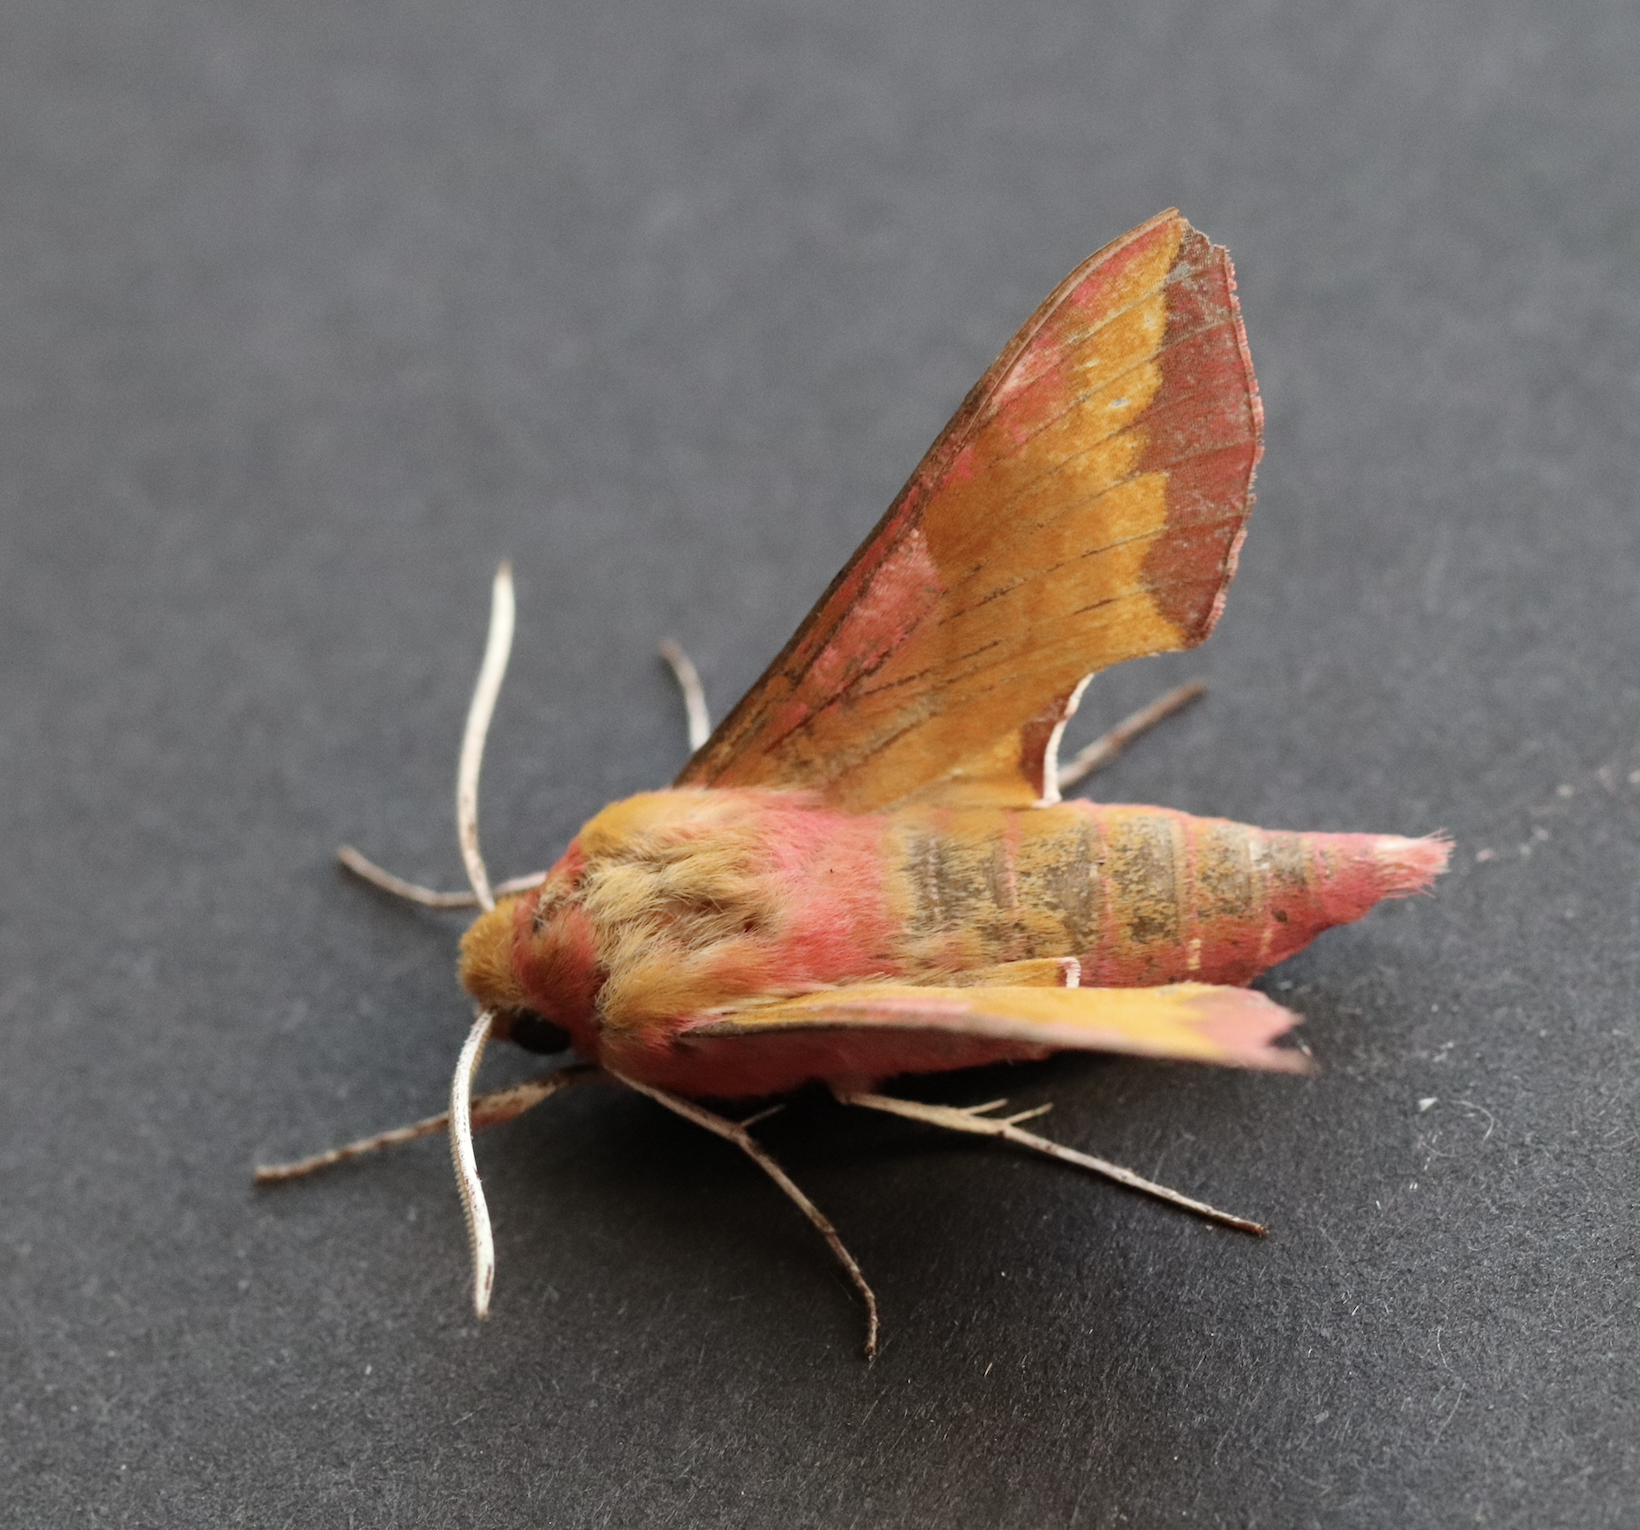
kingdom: Animalia
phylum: Arthropoda
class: Insecta
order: Lepidoptera
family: Sphingidae
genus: Deilephila
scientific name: Deilephila porcellus
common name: Small elephant hawk-moth
